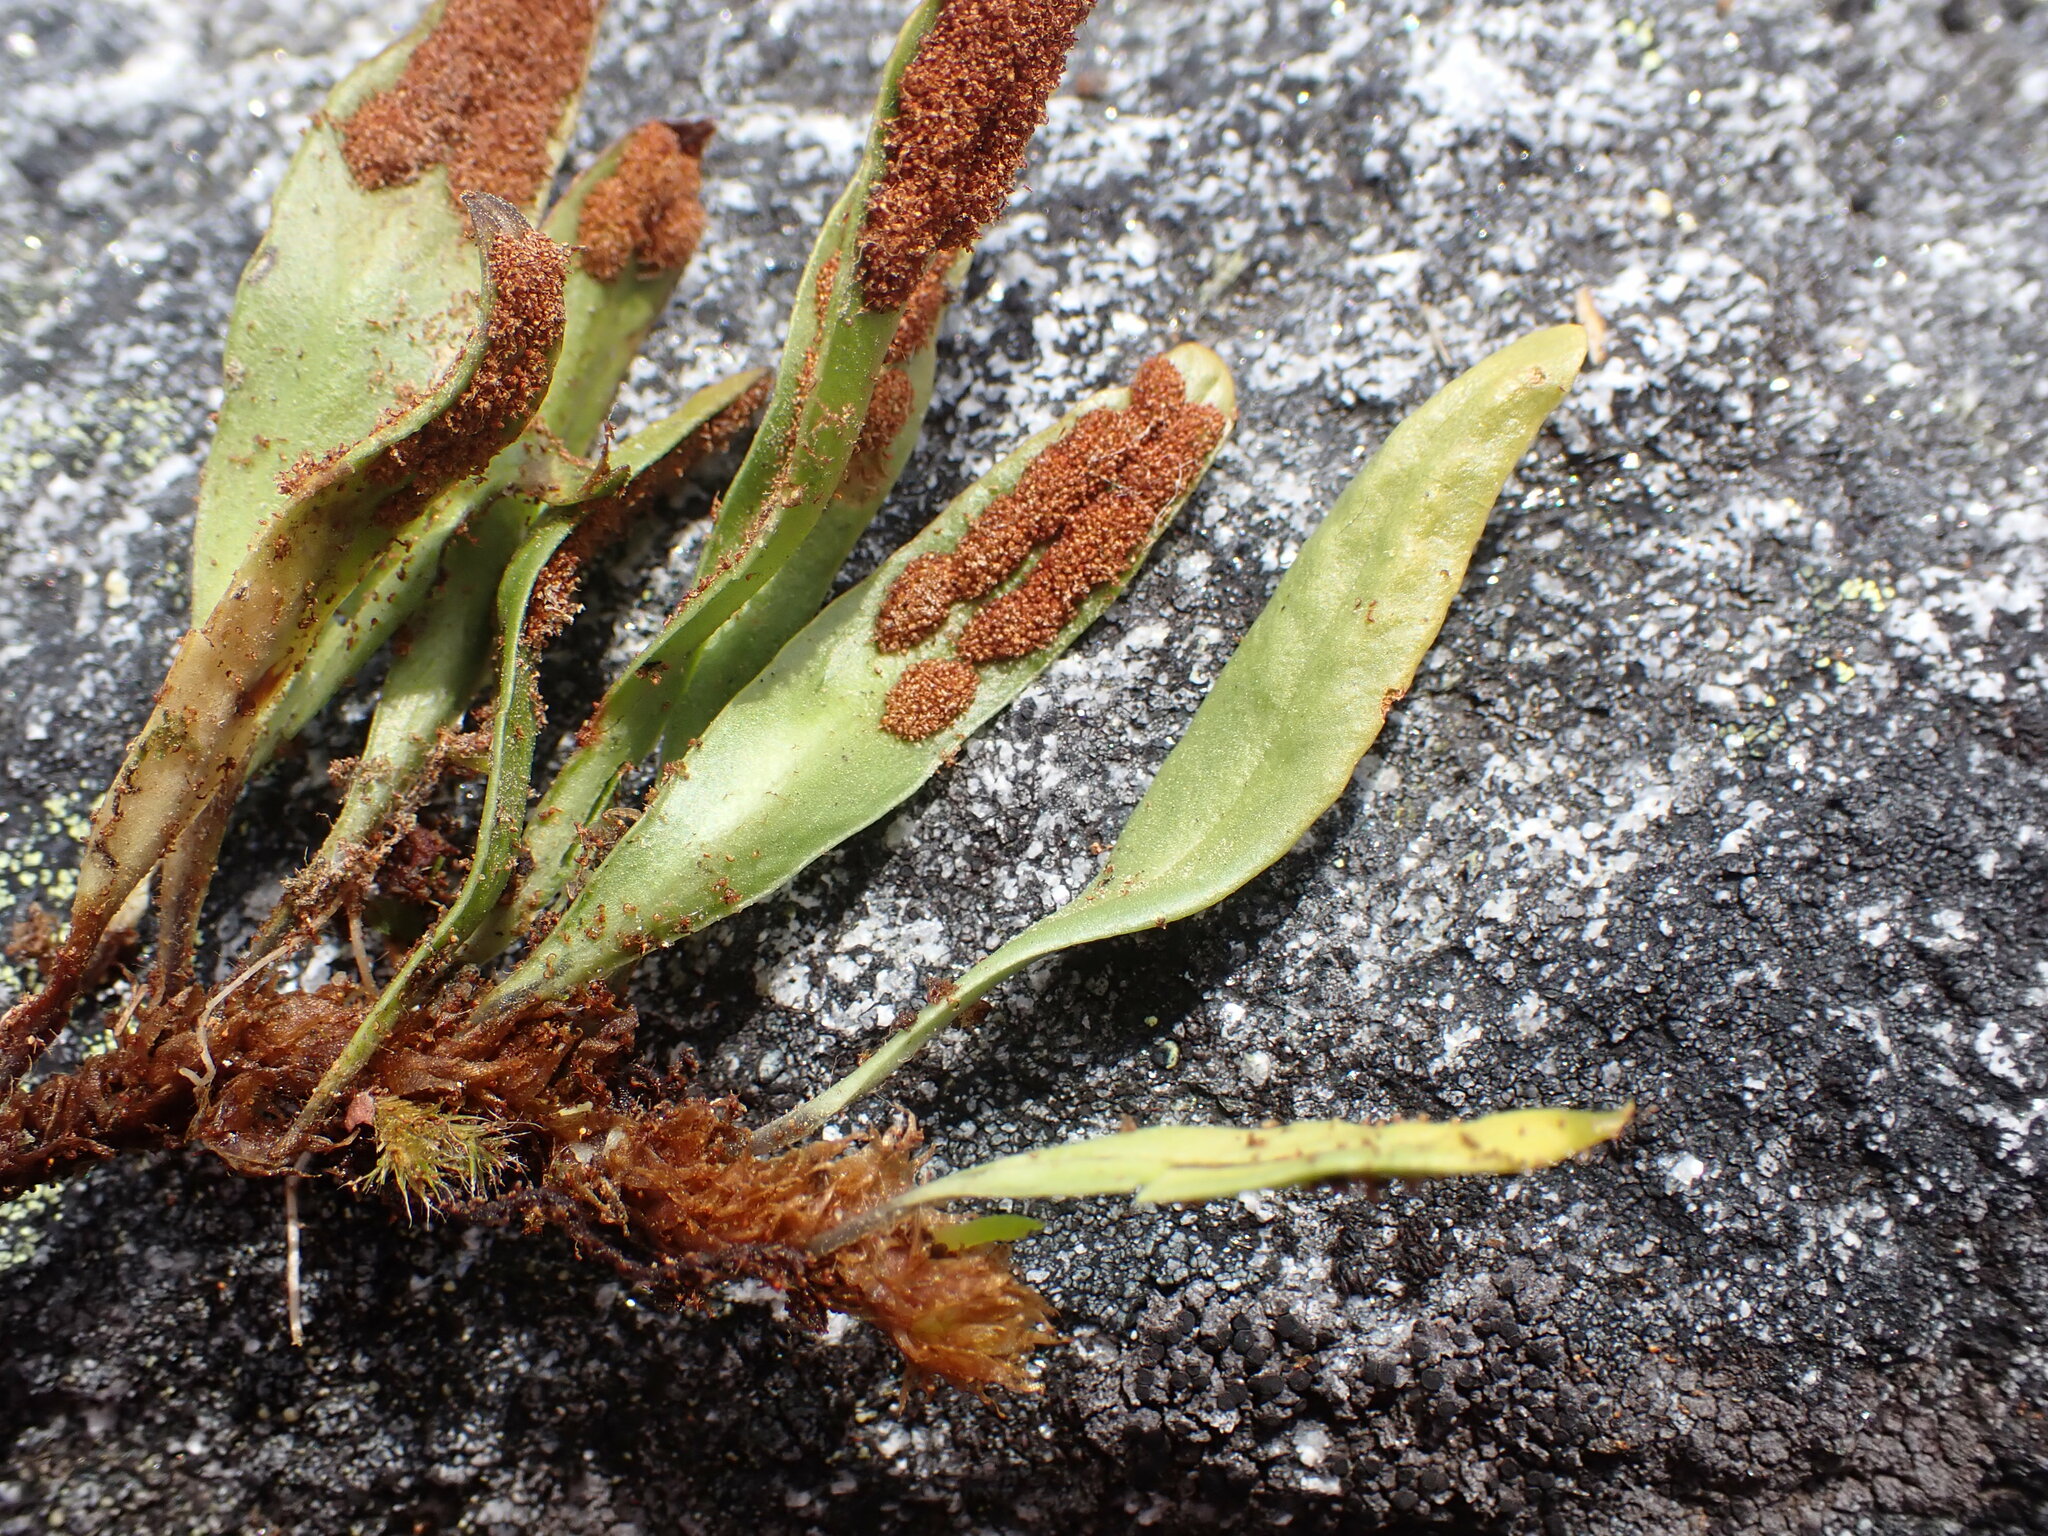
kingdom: Plantae
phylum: Tracheophyta
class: Polypodiopsida
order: Polypodiales
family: Polypodiaceae
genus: Notogrammitis
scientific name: Notogrammitis givenii
